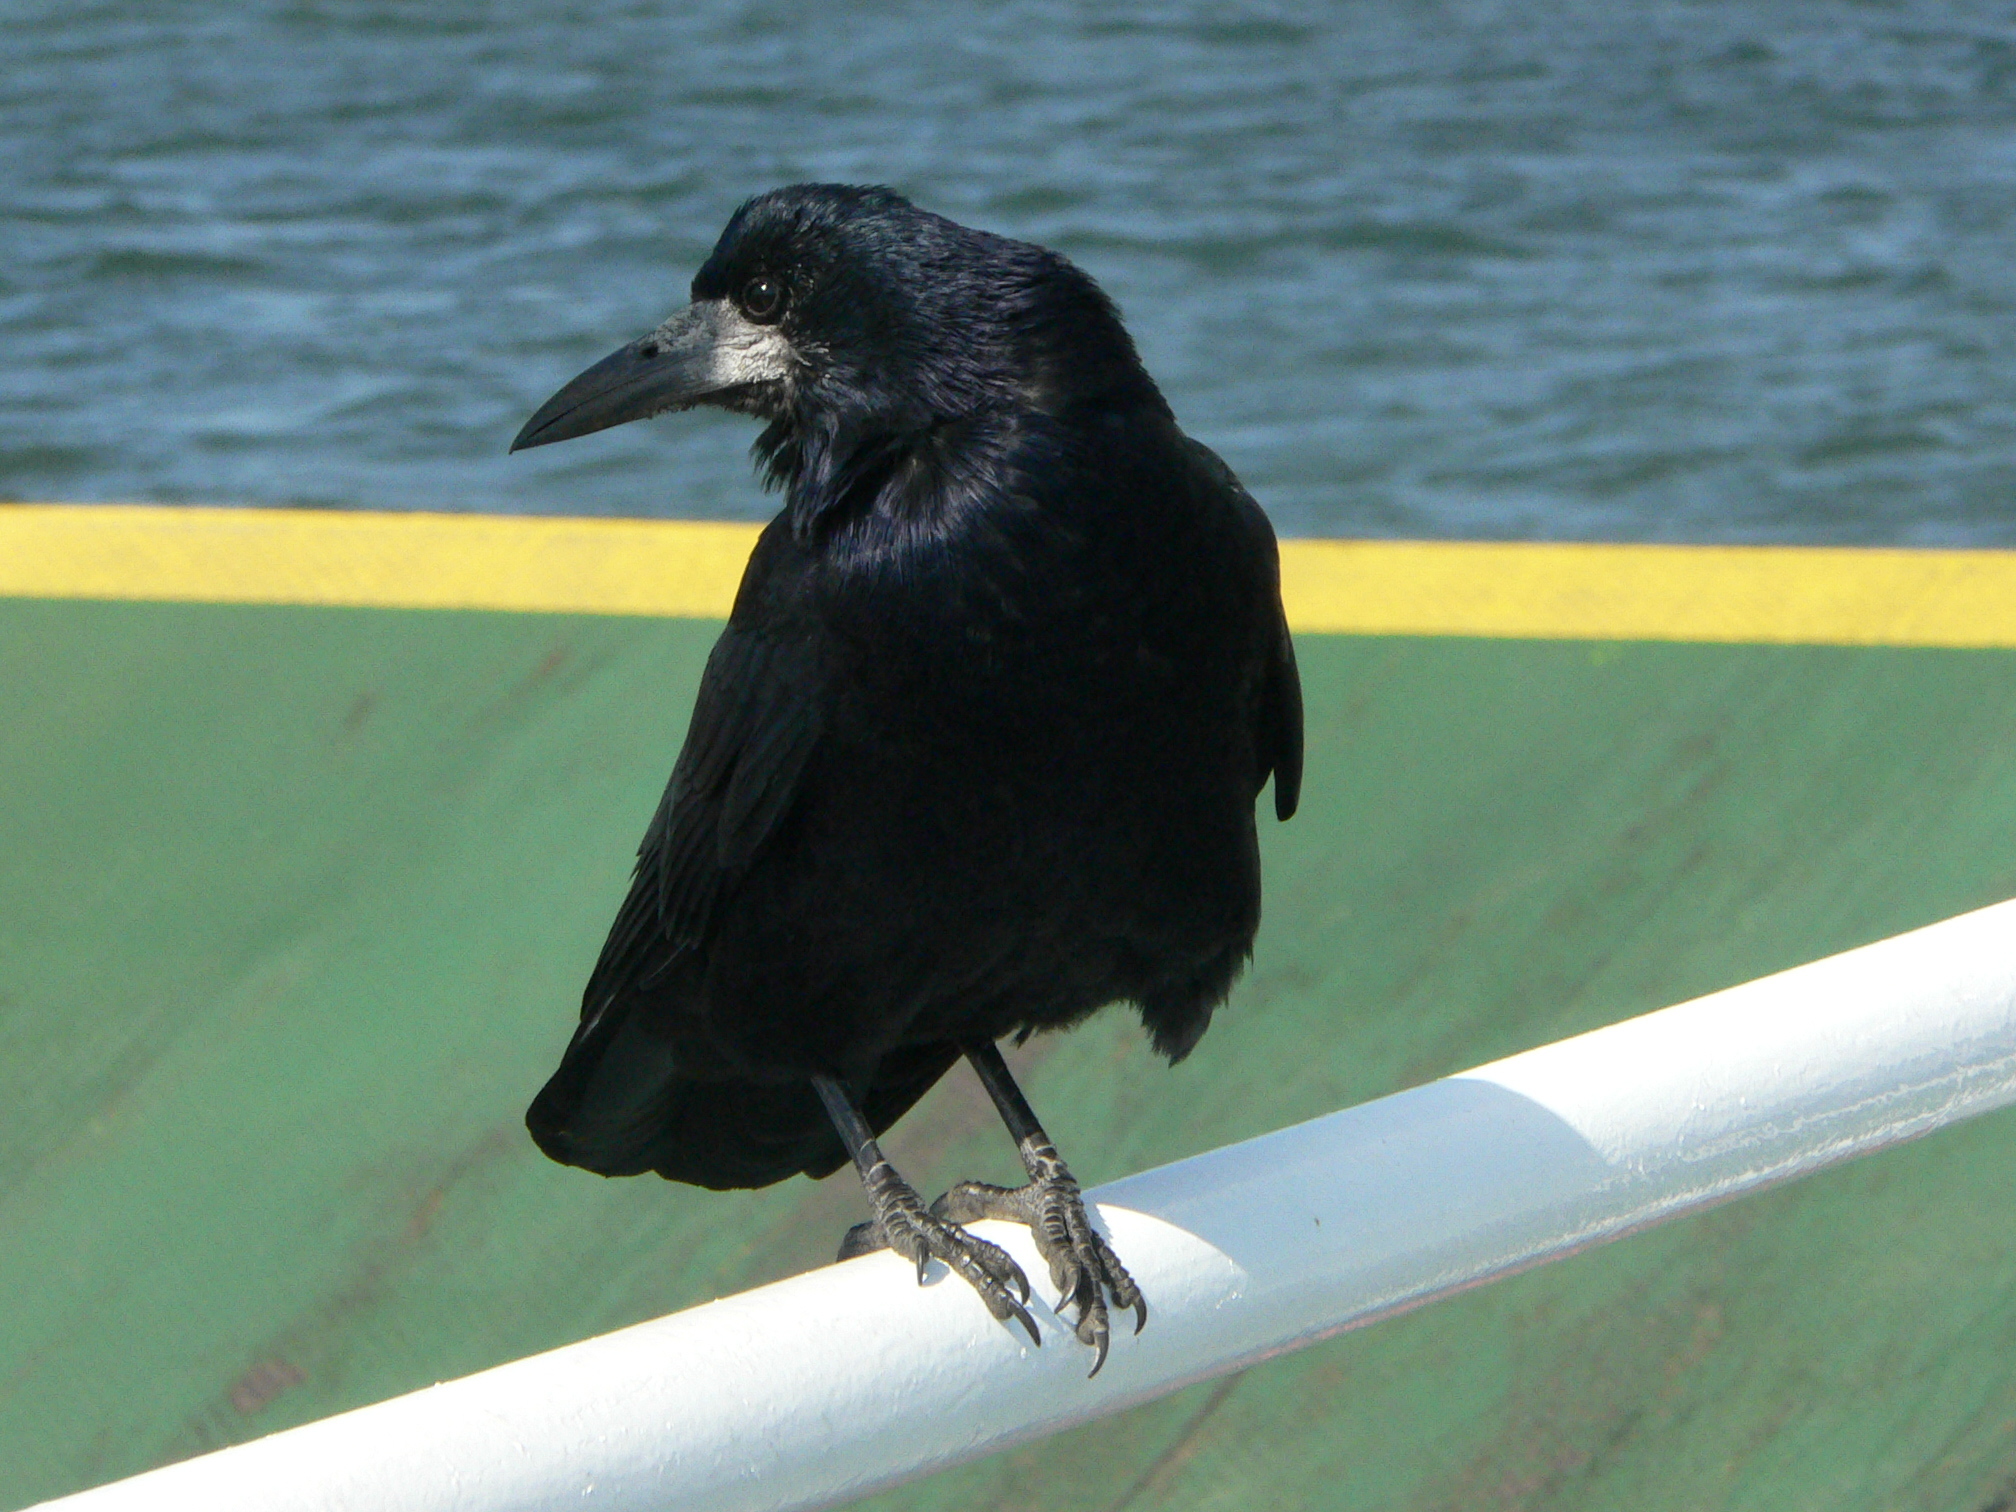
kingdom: Animalia
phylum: Chordata
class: Aves
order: Passeriformes
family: Corvidae
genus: Corvus
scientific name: Corvus frugilegus
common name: Rook
